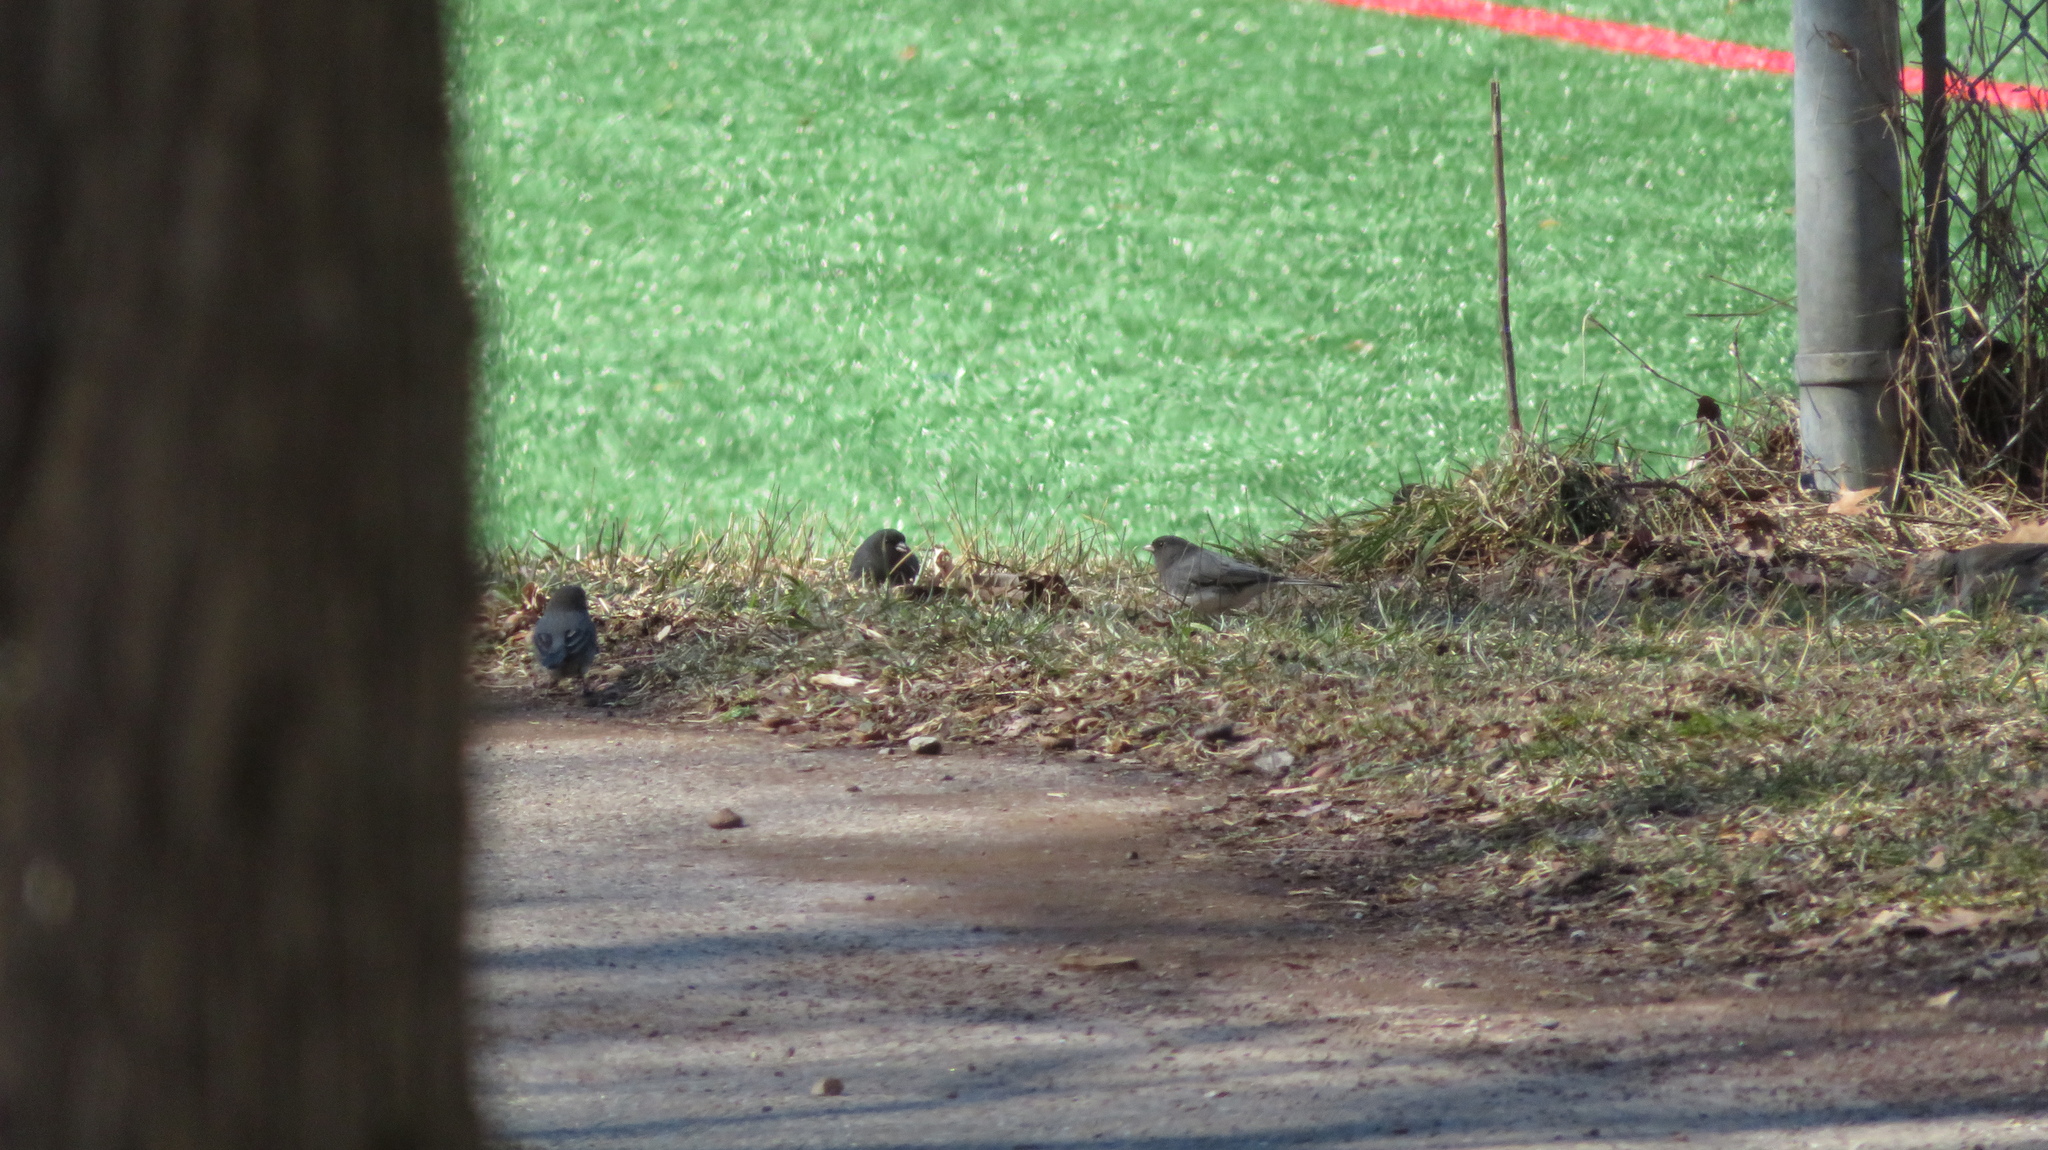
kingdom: Animalia
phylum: Chordata
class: Aves
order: Passeriformes
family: Passerellidae
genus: Junco
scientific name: Junco hyemalis
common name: Dark-eyed junco
